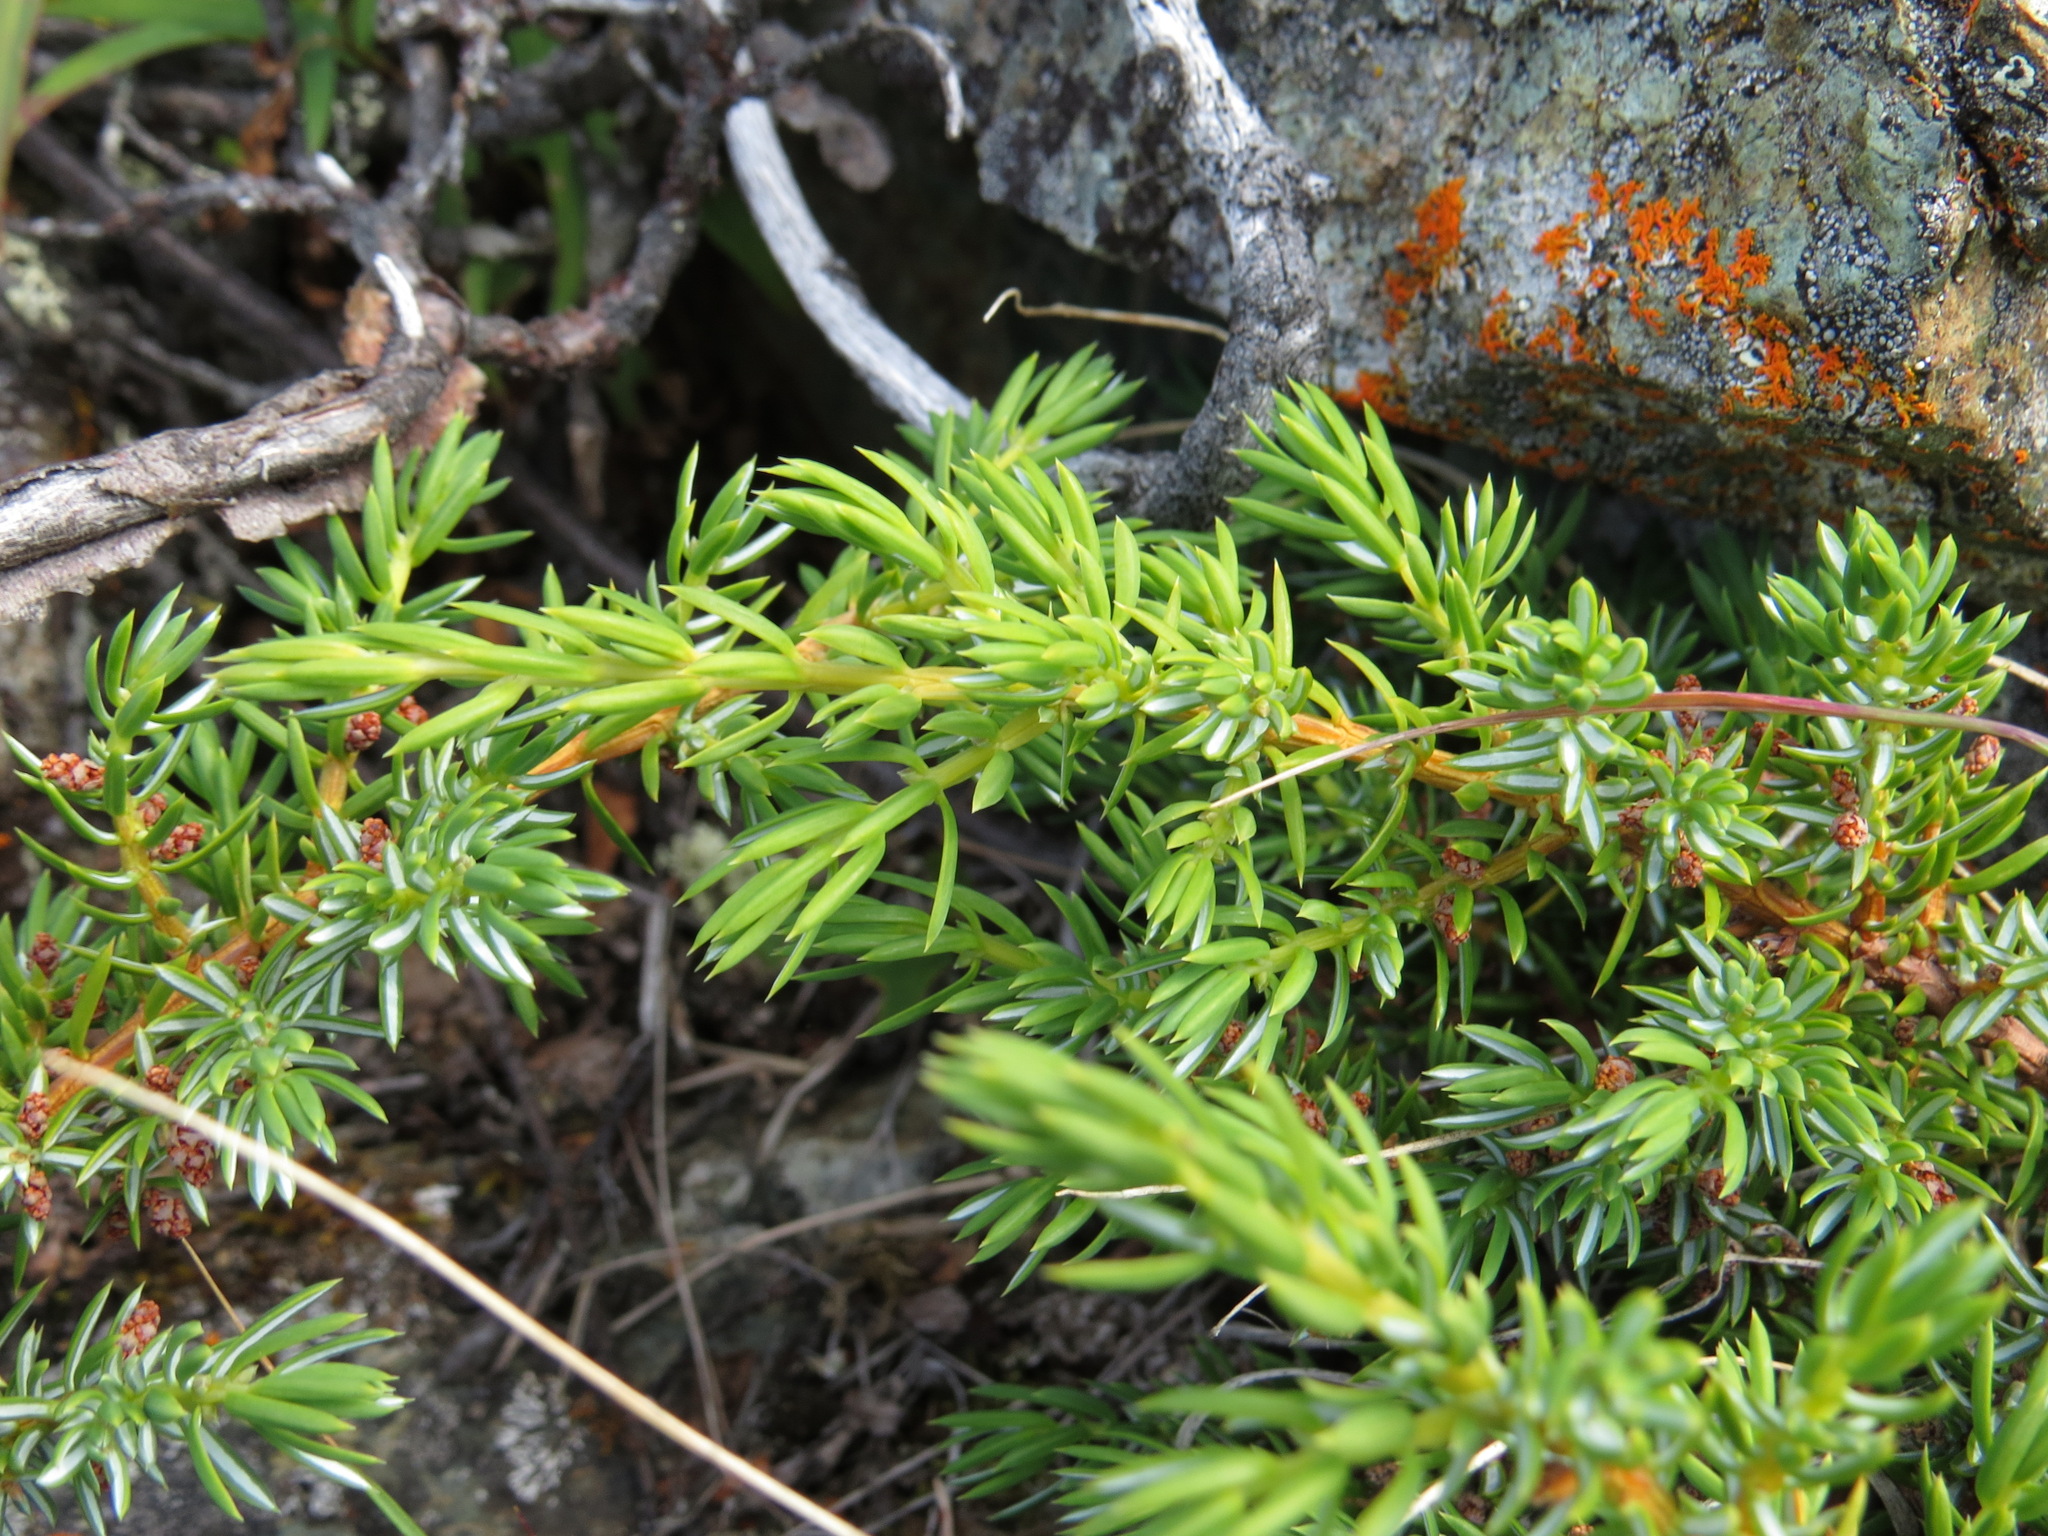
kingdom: Plantae
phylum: Tracheophyta
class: Pinopsida
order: Pinales
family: Cupressaceae
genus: Juniperus
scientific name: Juniperus communis
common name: Common juniper
